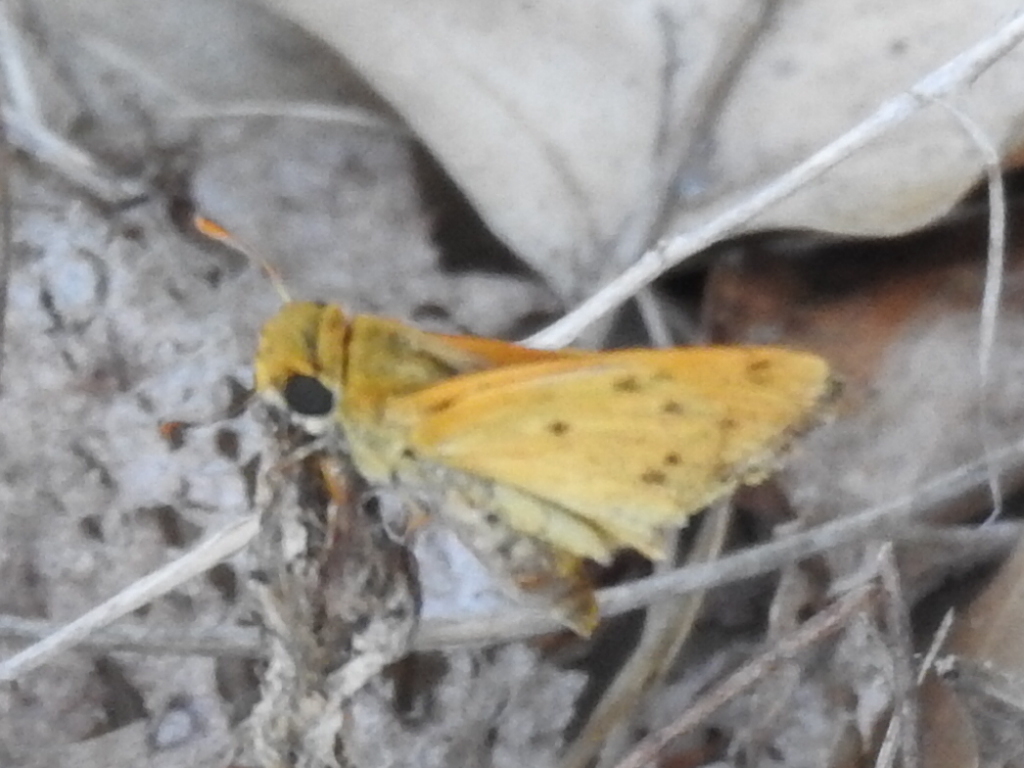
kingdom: Animalia
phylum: Arthropoda
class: Insecta
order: Lepidoptera
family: Hesperiidae
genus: Hylephila
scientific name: Hylephila phyleus
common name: Fiery skipper
